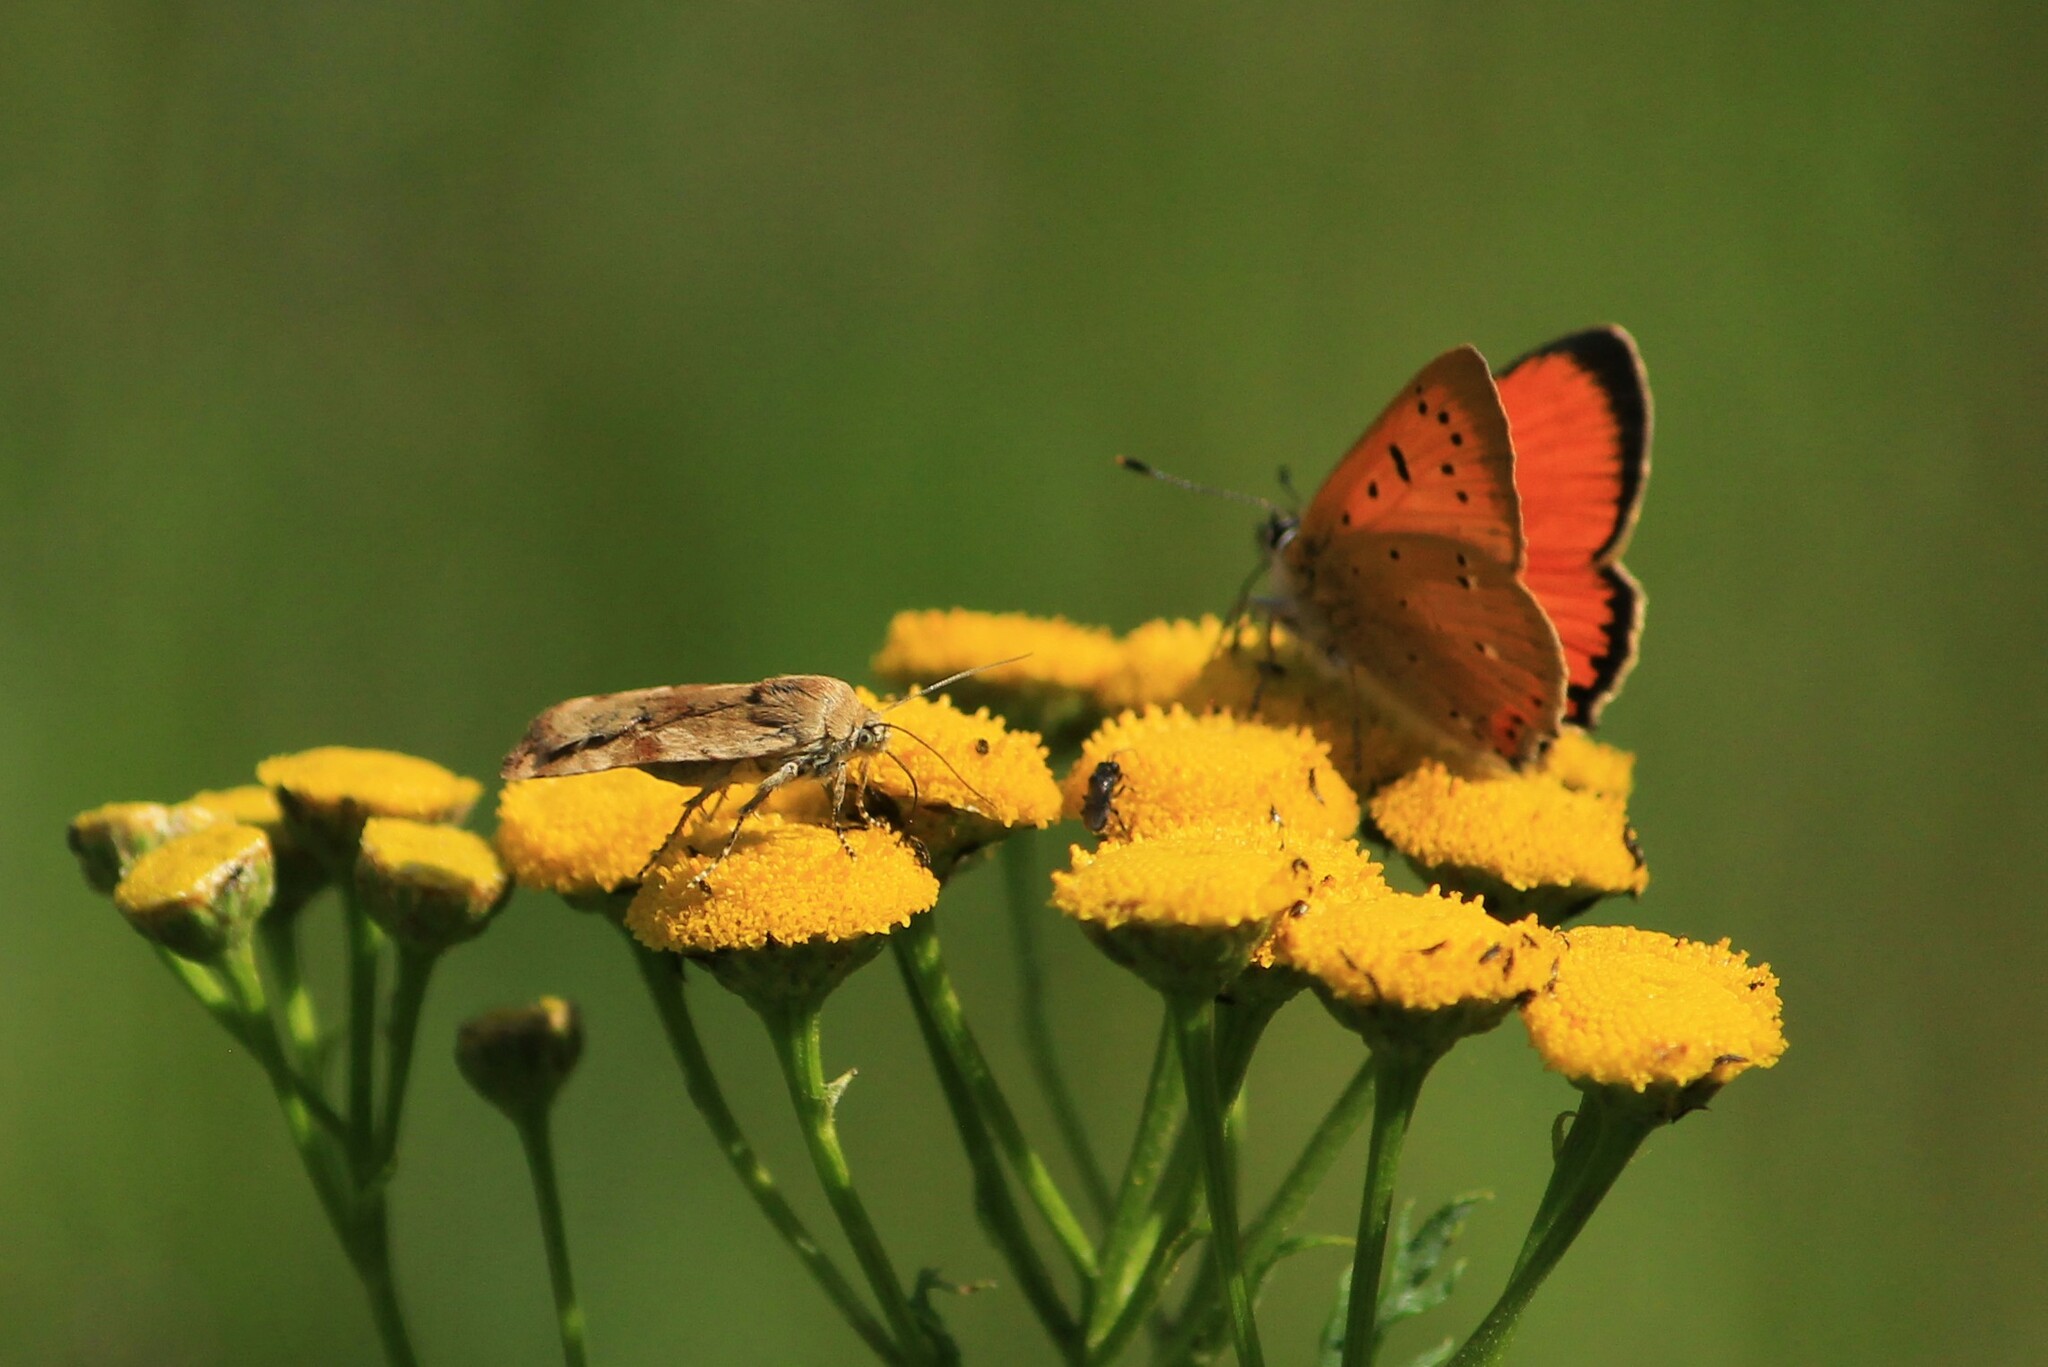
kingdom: Animalia
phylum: Arthropoda
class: Insecta
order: Lepidoptera
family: Noctuidae
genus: Cryptocala
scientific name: Cryptocala chardinyi
